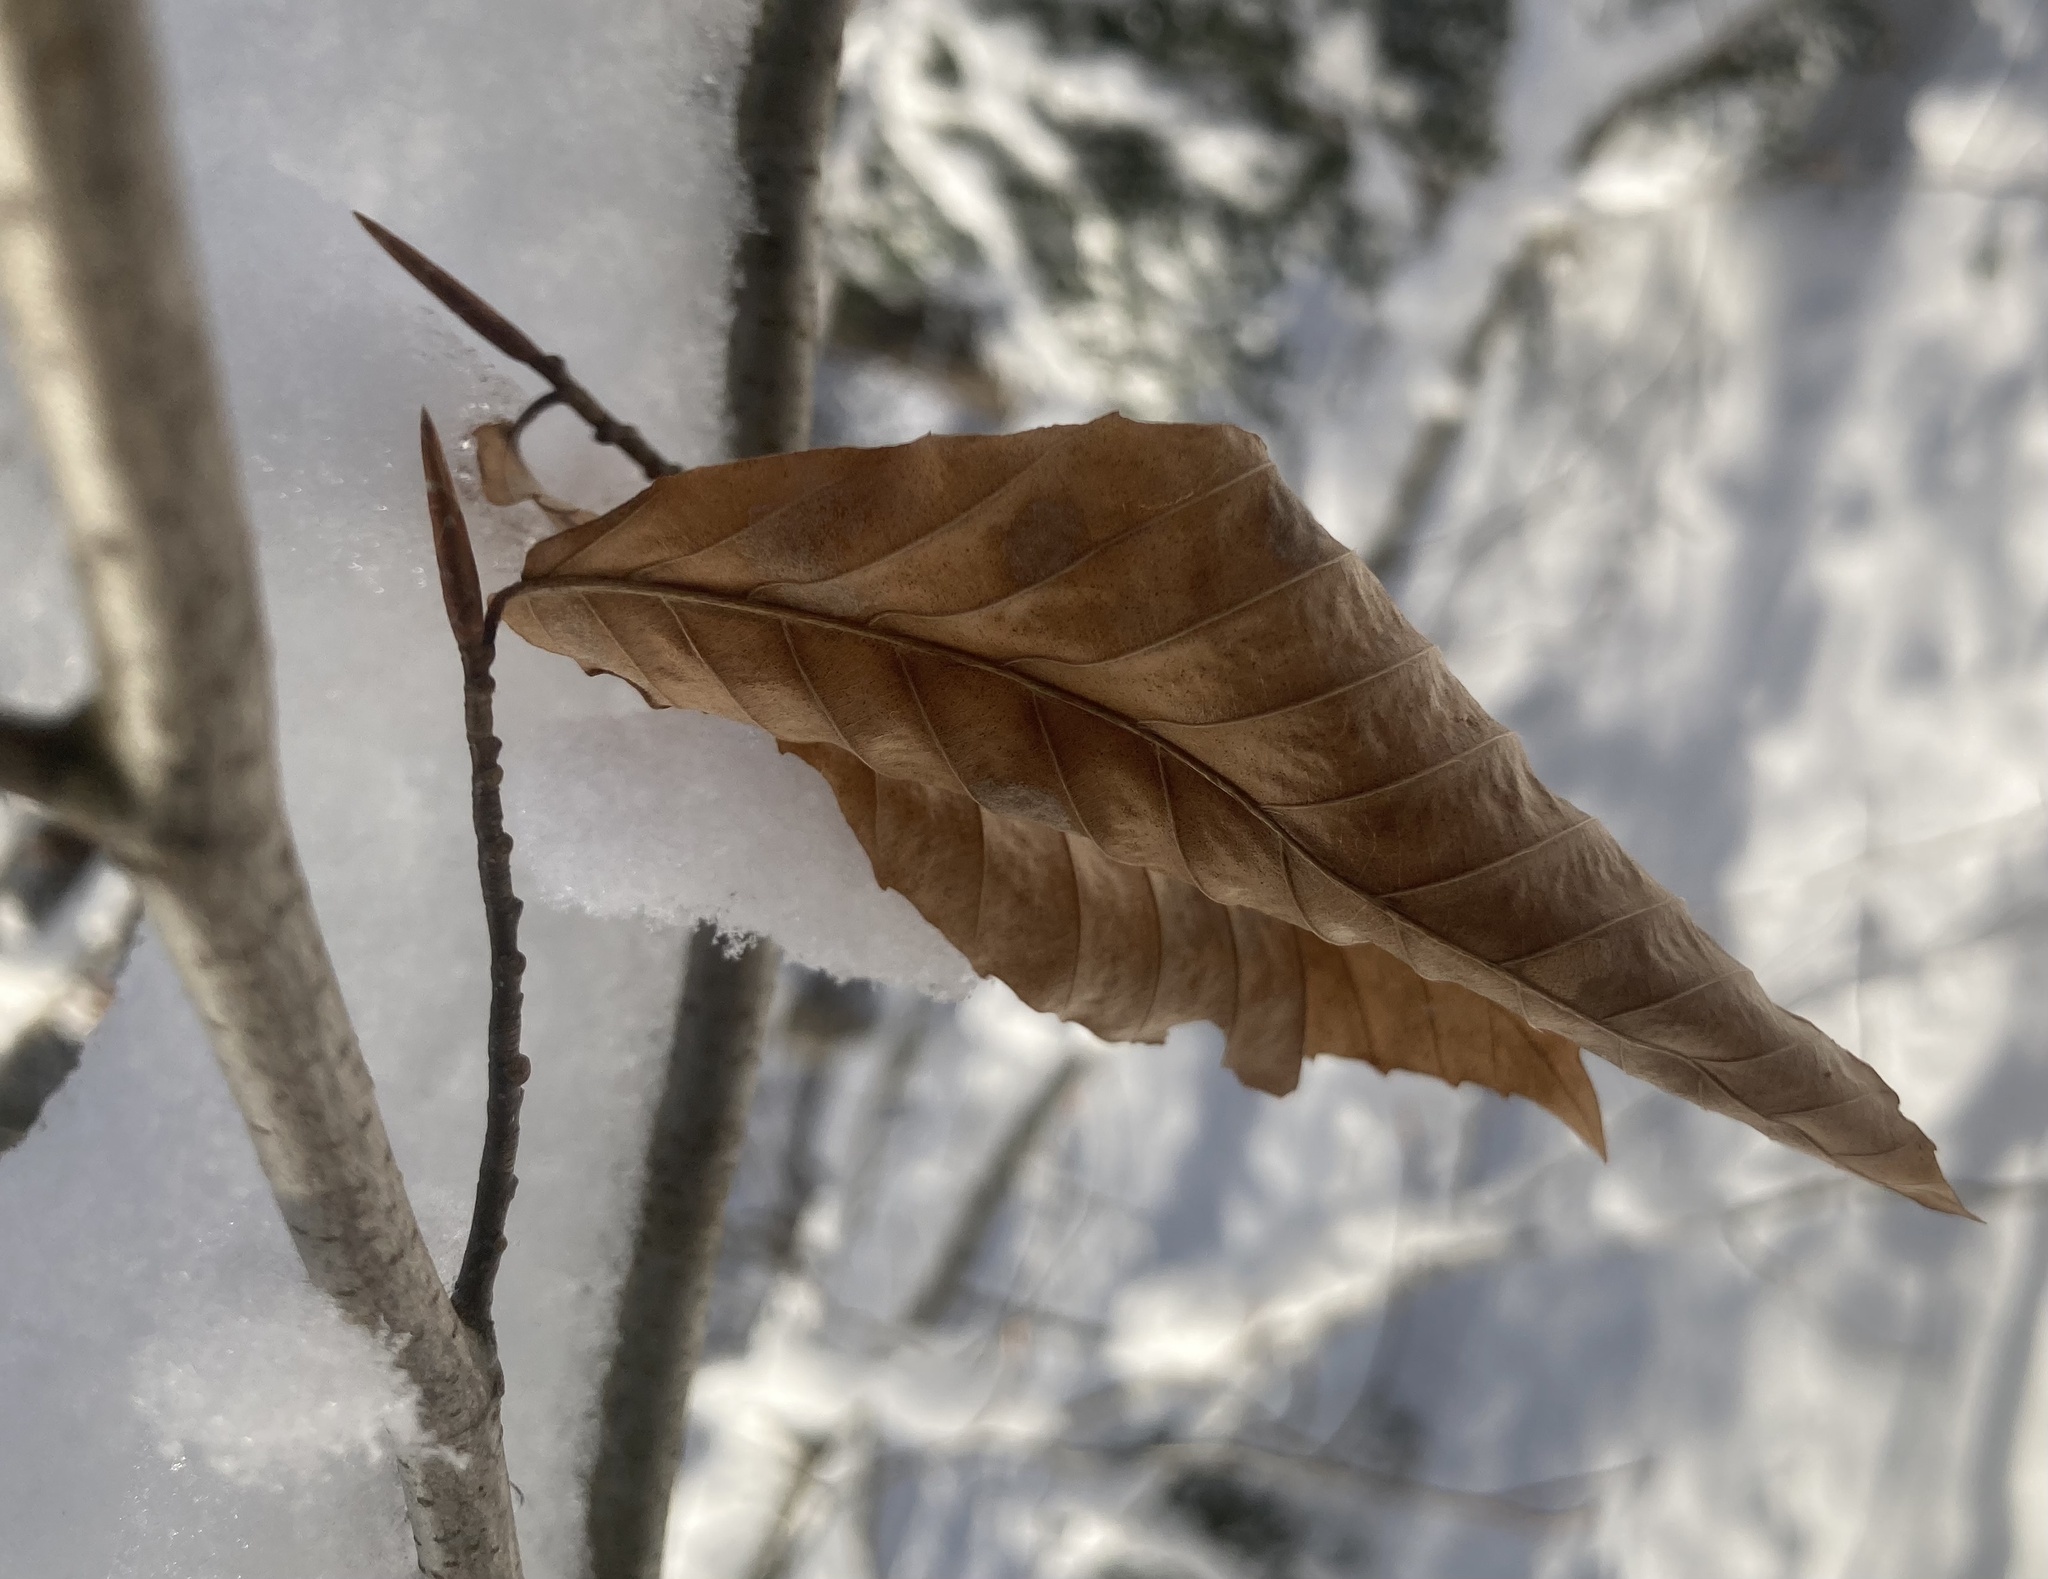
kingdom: Plantae
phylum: Tracheophyta
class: Magnoliopsida
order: Fagales
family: Fagaceae
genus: Fagus
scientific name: Fagus grandifolia
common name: American beech
